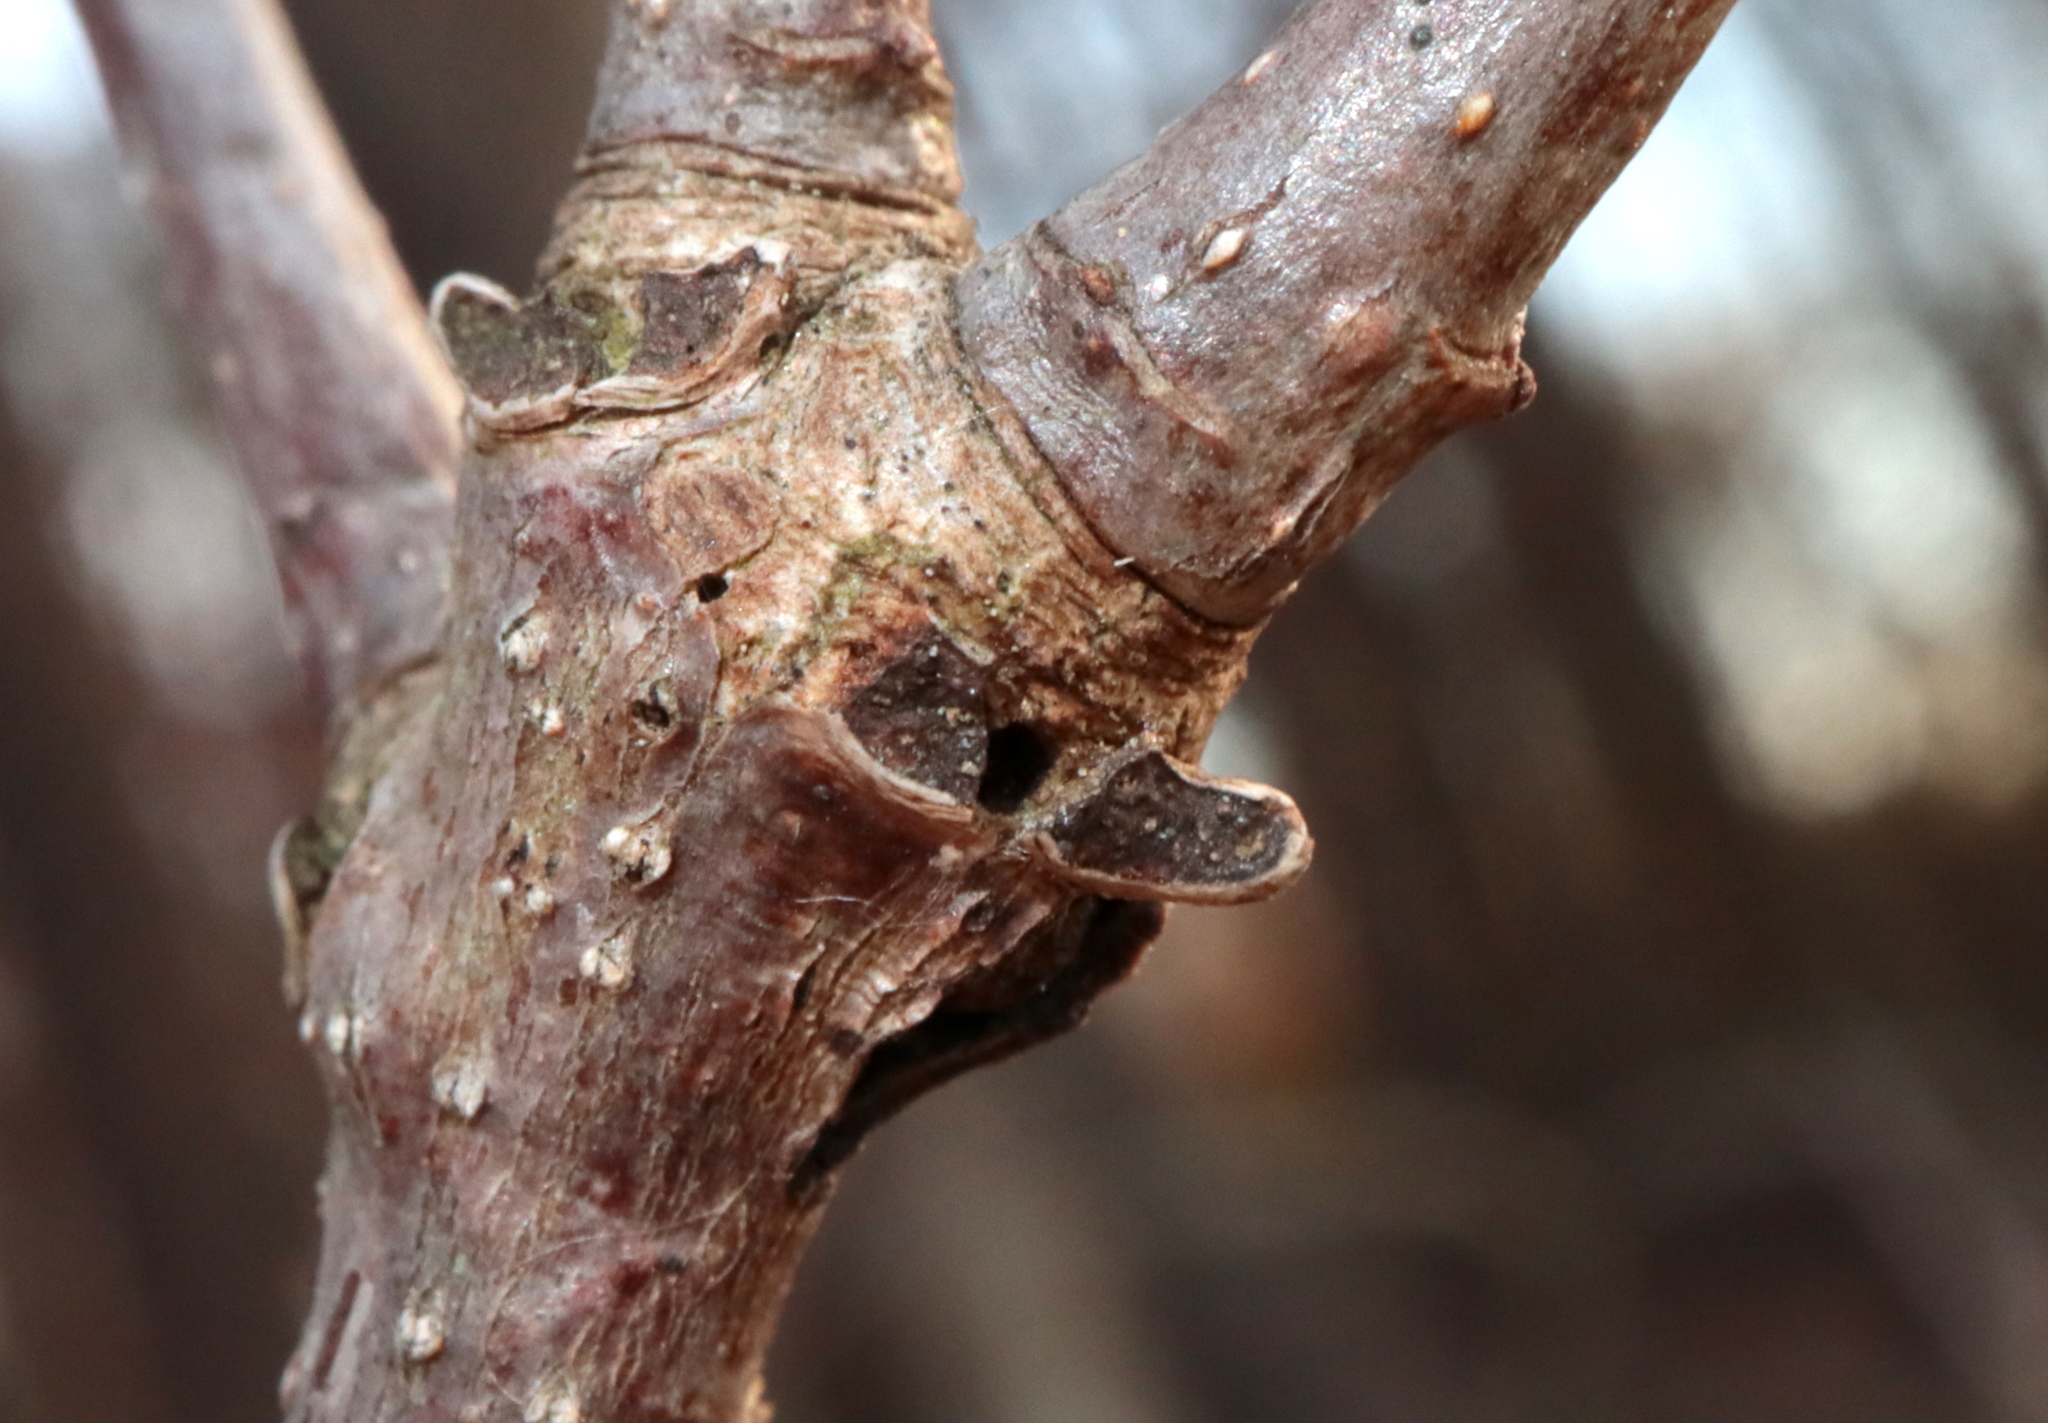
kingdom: Animalia
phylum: Arthropoda
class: Insecta
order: Hymenoptera
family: Cynipidae
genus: Neuroterus
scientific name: Neuroterus
